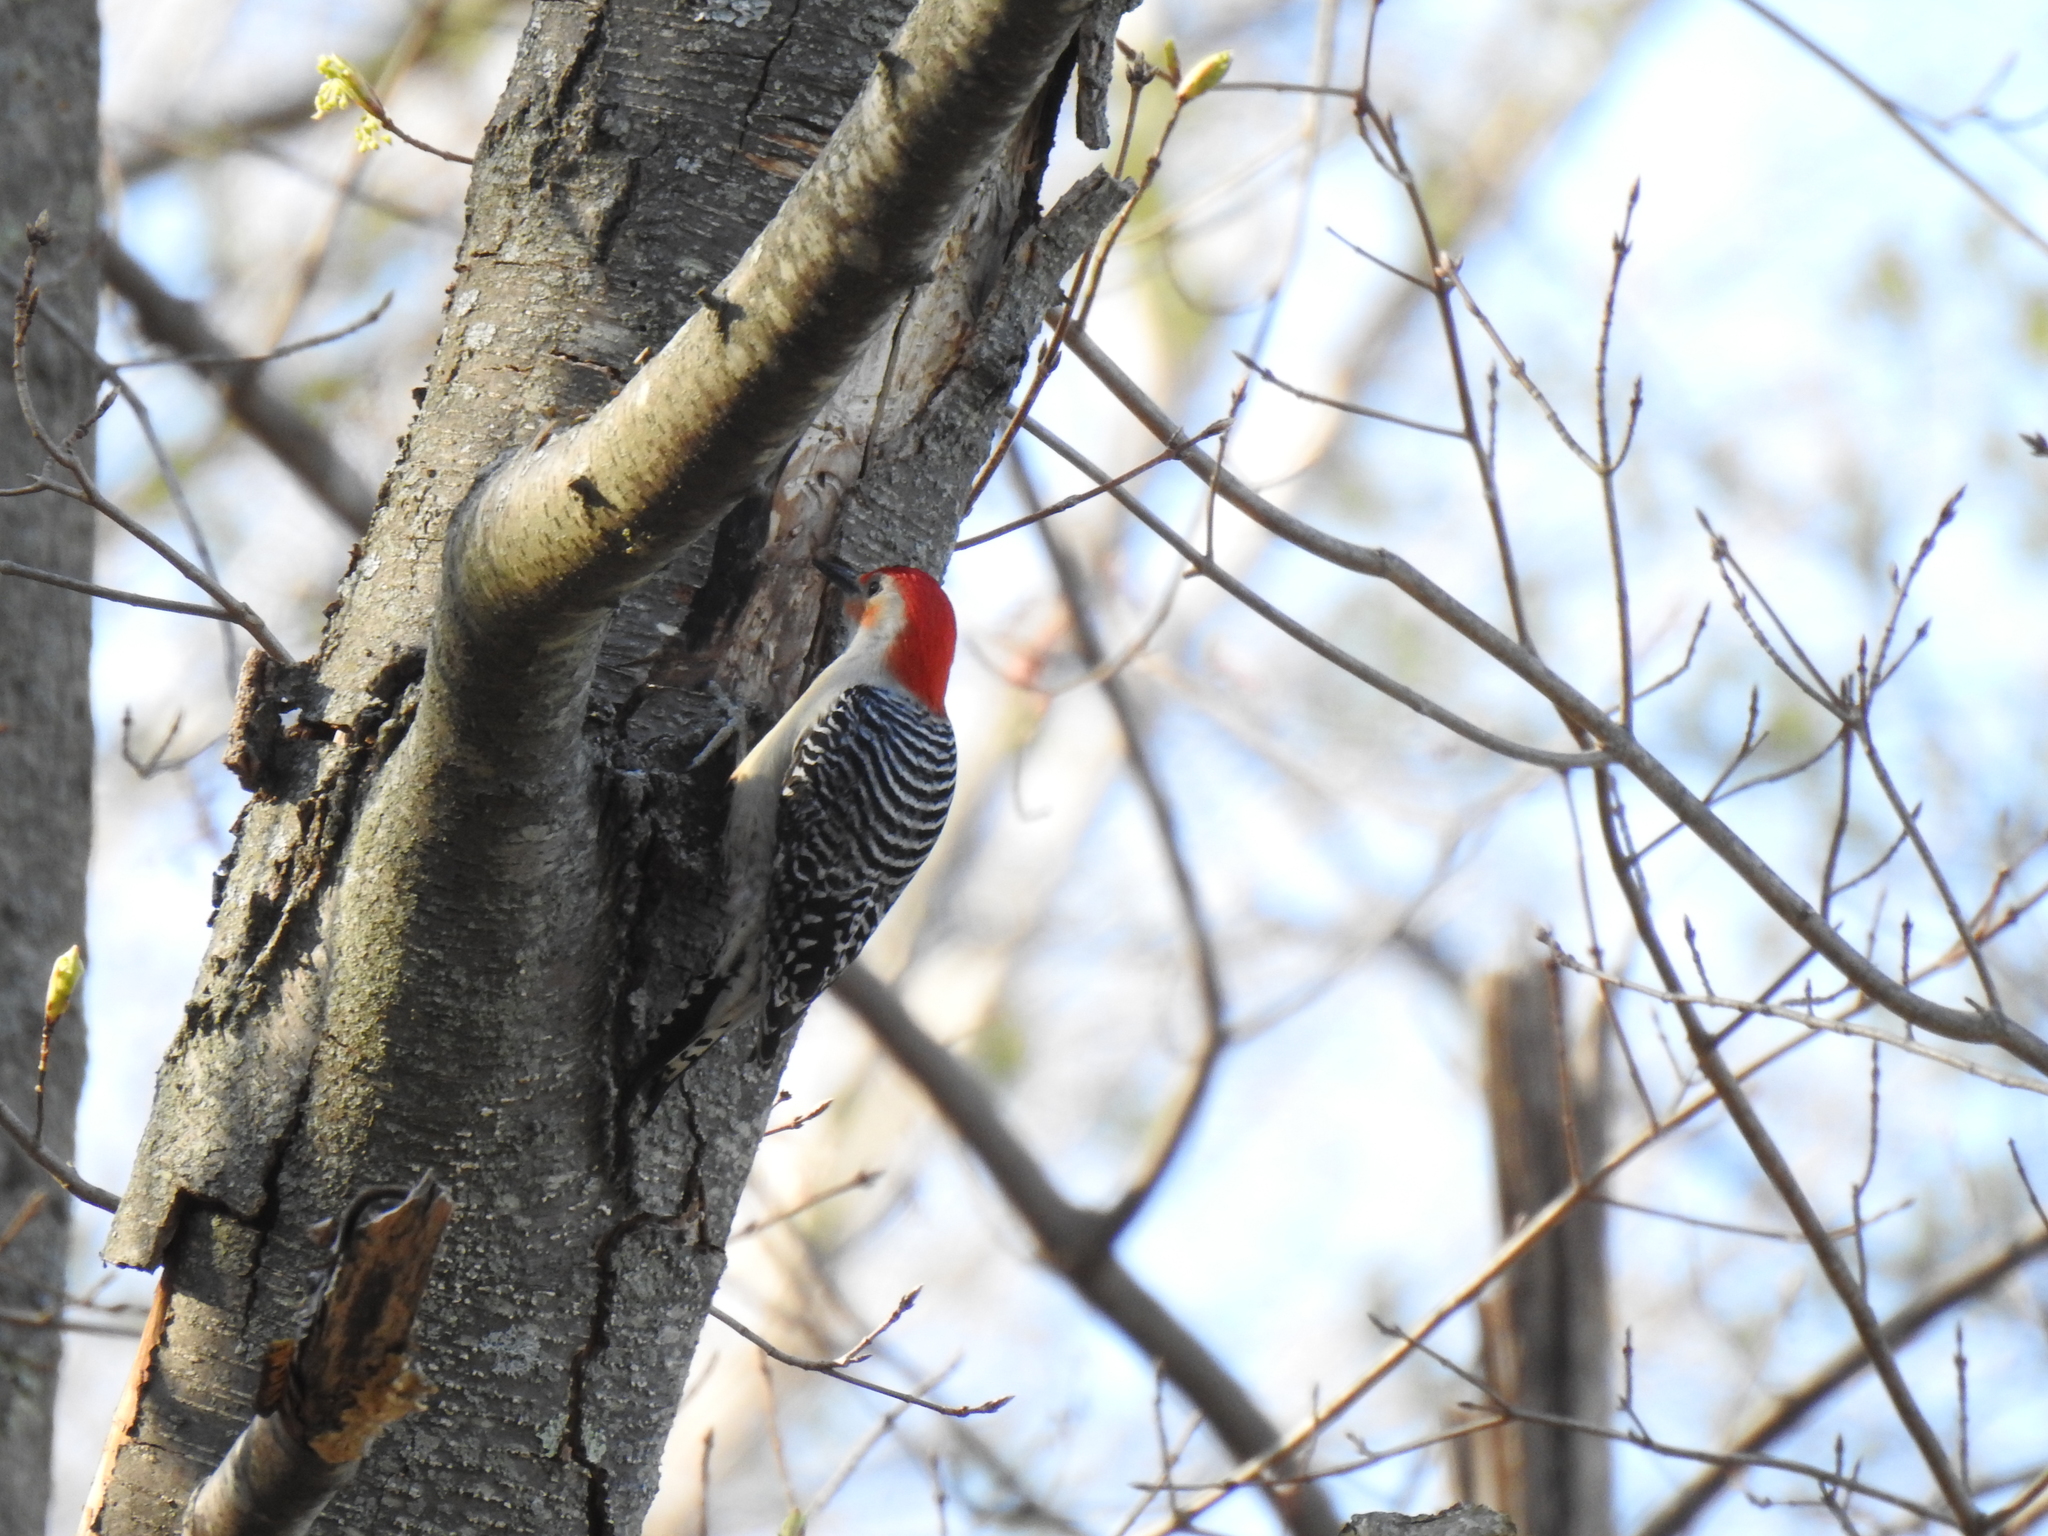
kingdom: Animalia
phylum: Chordata
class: Aves
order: Piciformes
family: Picidae
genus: Melanerpes
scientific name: Melanerpes carolinus
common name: Red-bellied woodpecker
